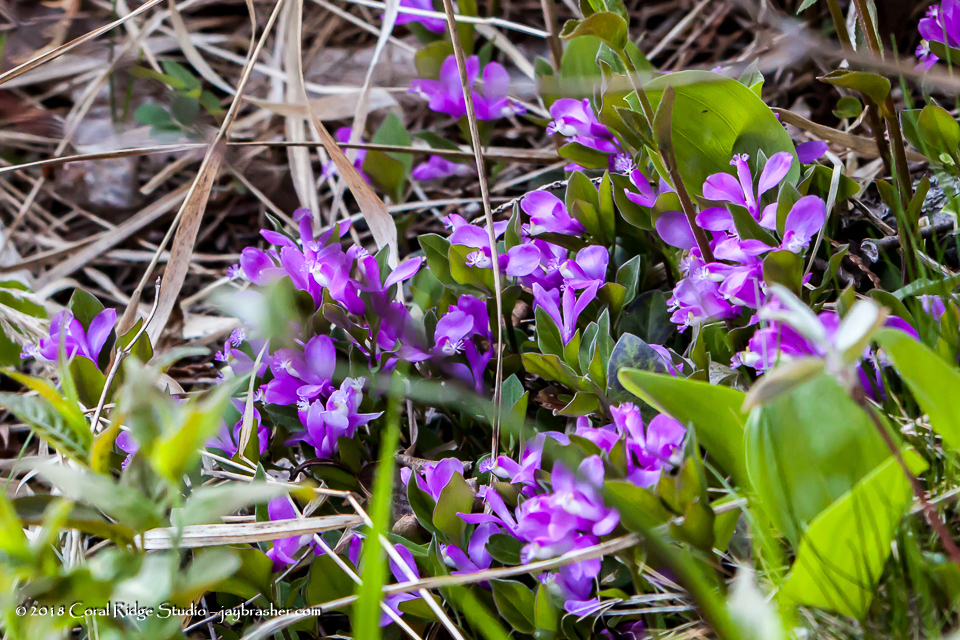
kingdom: Plantae
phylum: Tracheophyta
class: Magnoliopsida
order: Fabales
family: Polygalaceae
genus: Polygaloides
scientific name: Polygaloides paucifolia
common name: Bird-on-the-wing
